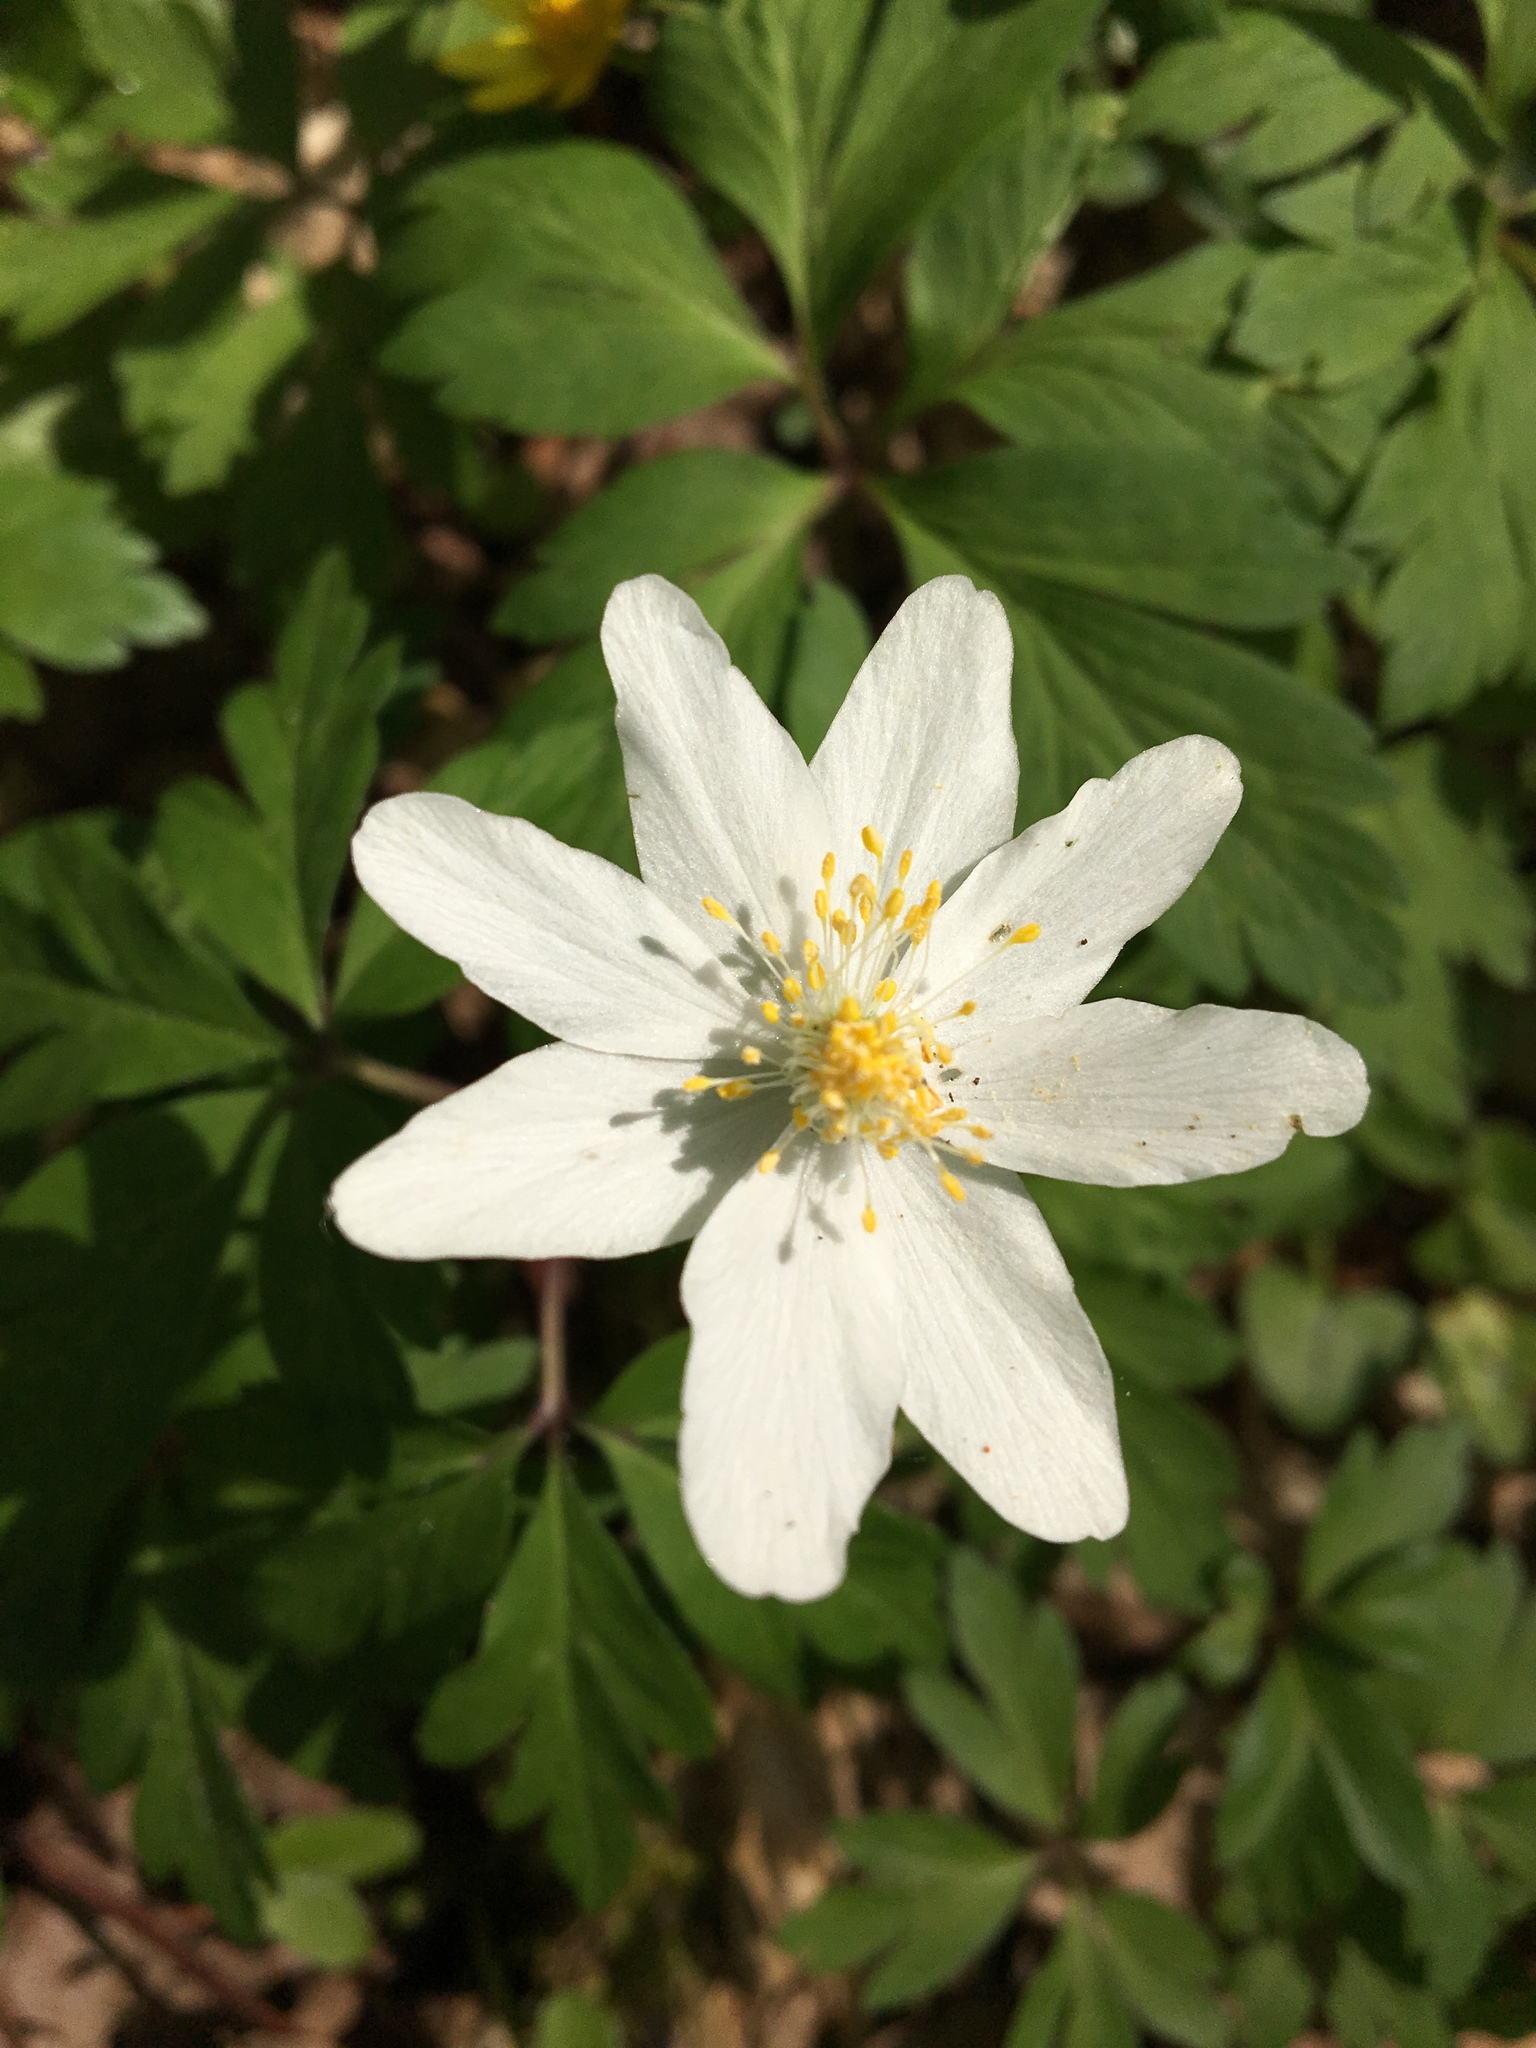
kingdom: Plantae
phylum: Tracheophyta
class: Magnoliopsida
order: Ranunculales
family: Ranunculaceae
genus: Anemone
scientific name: Anemone nemorosa
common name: Wood anemone
